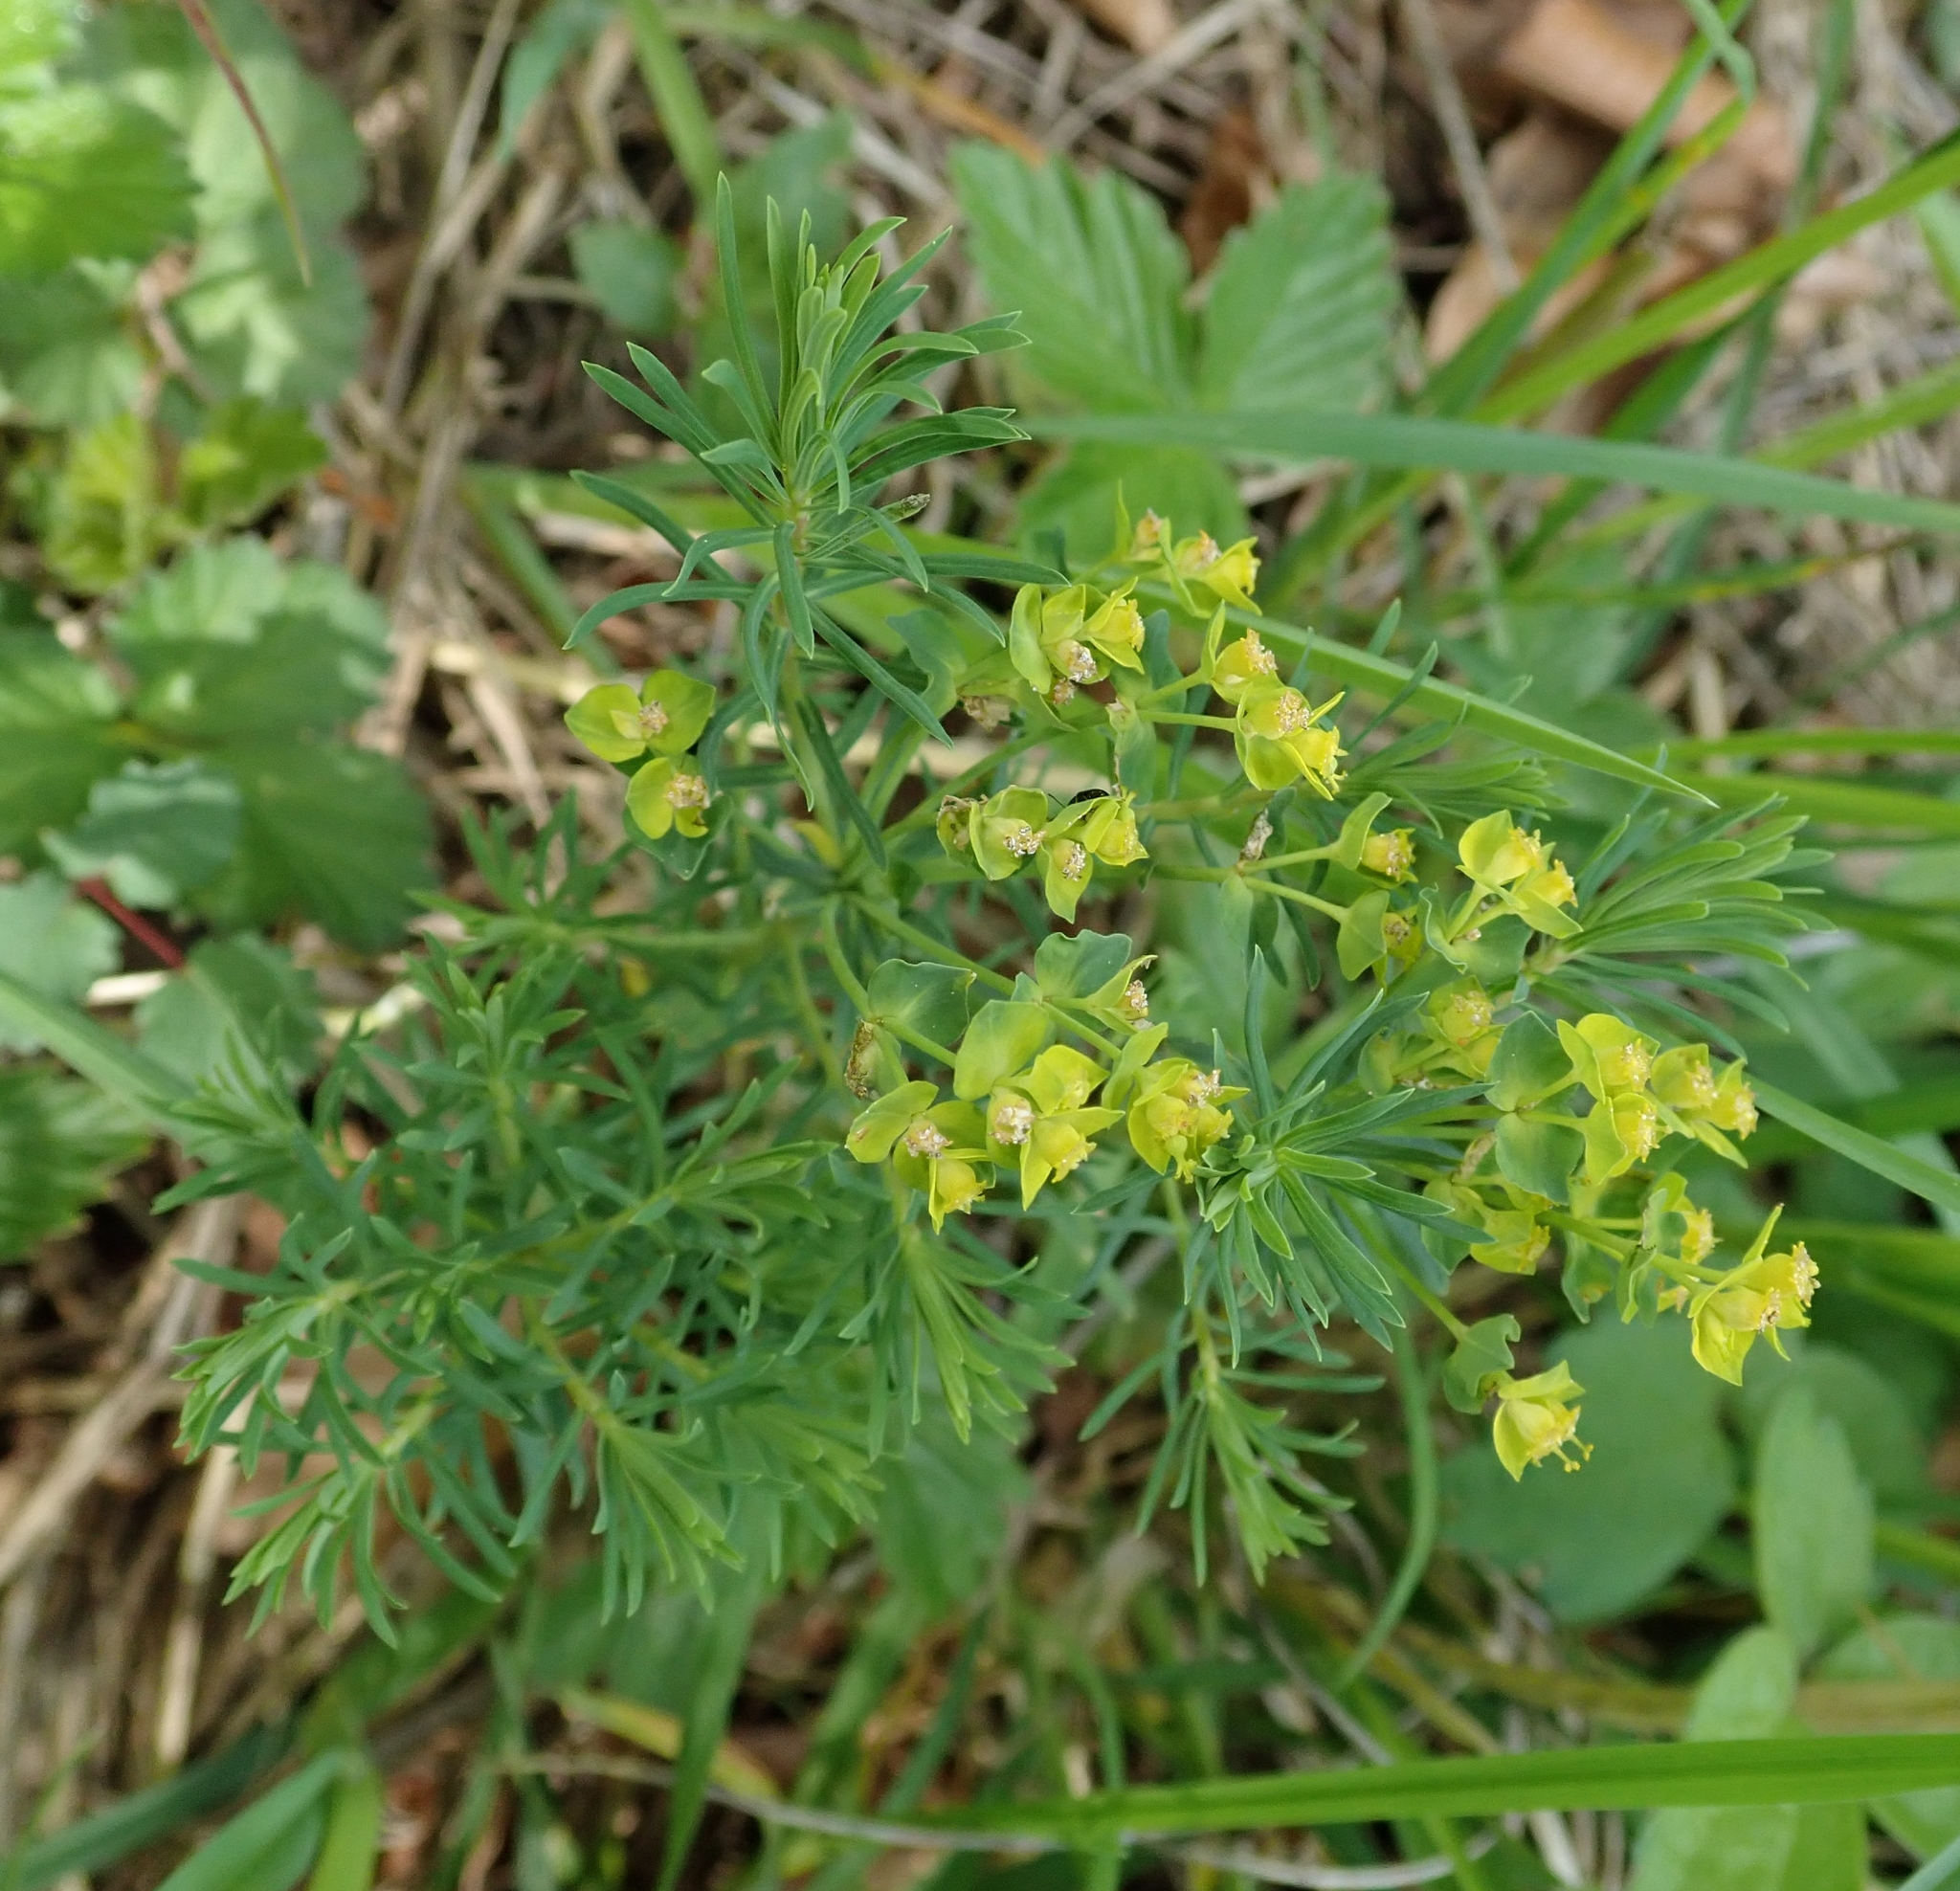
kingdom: Plantae
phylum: Tracheophyta
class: Magnoliopsida
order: Malpighiales
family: Euphorbiaceae
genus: Euphorbia
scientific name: Euphorbia cyparissias
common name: Cypress spurge
